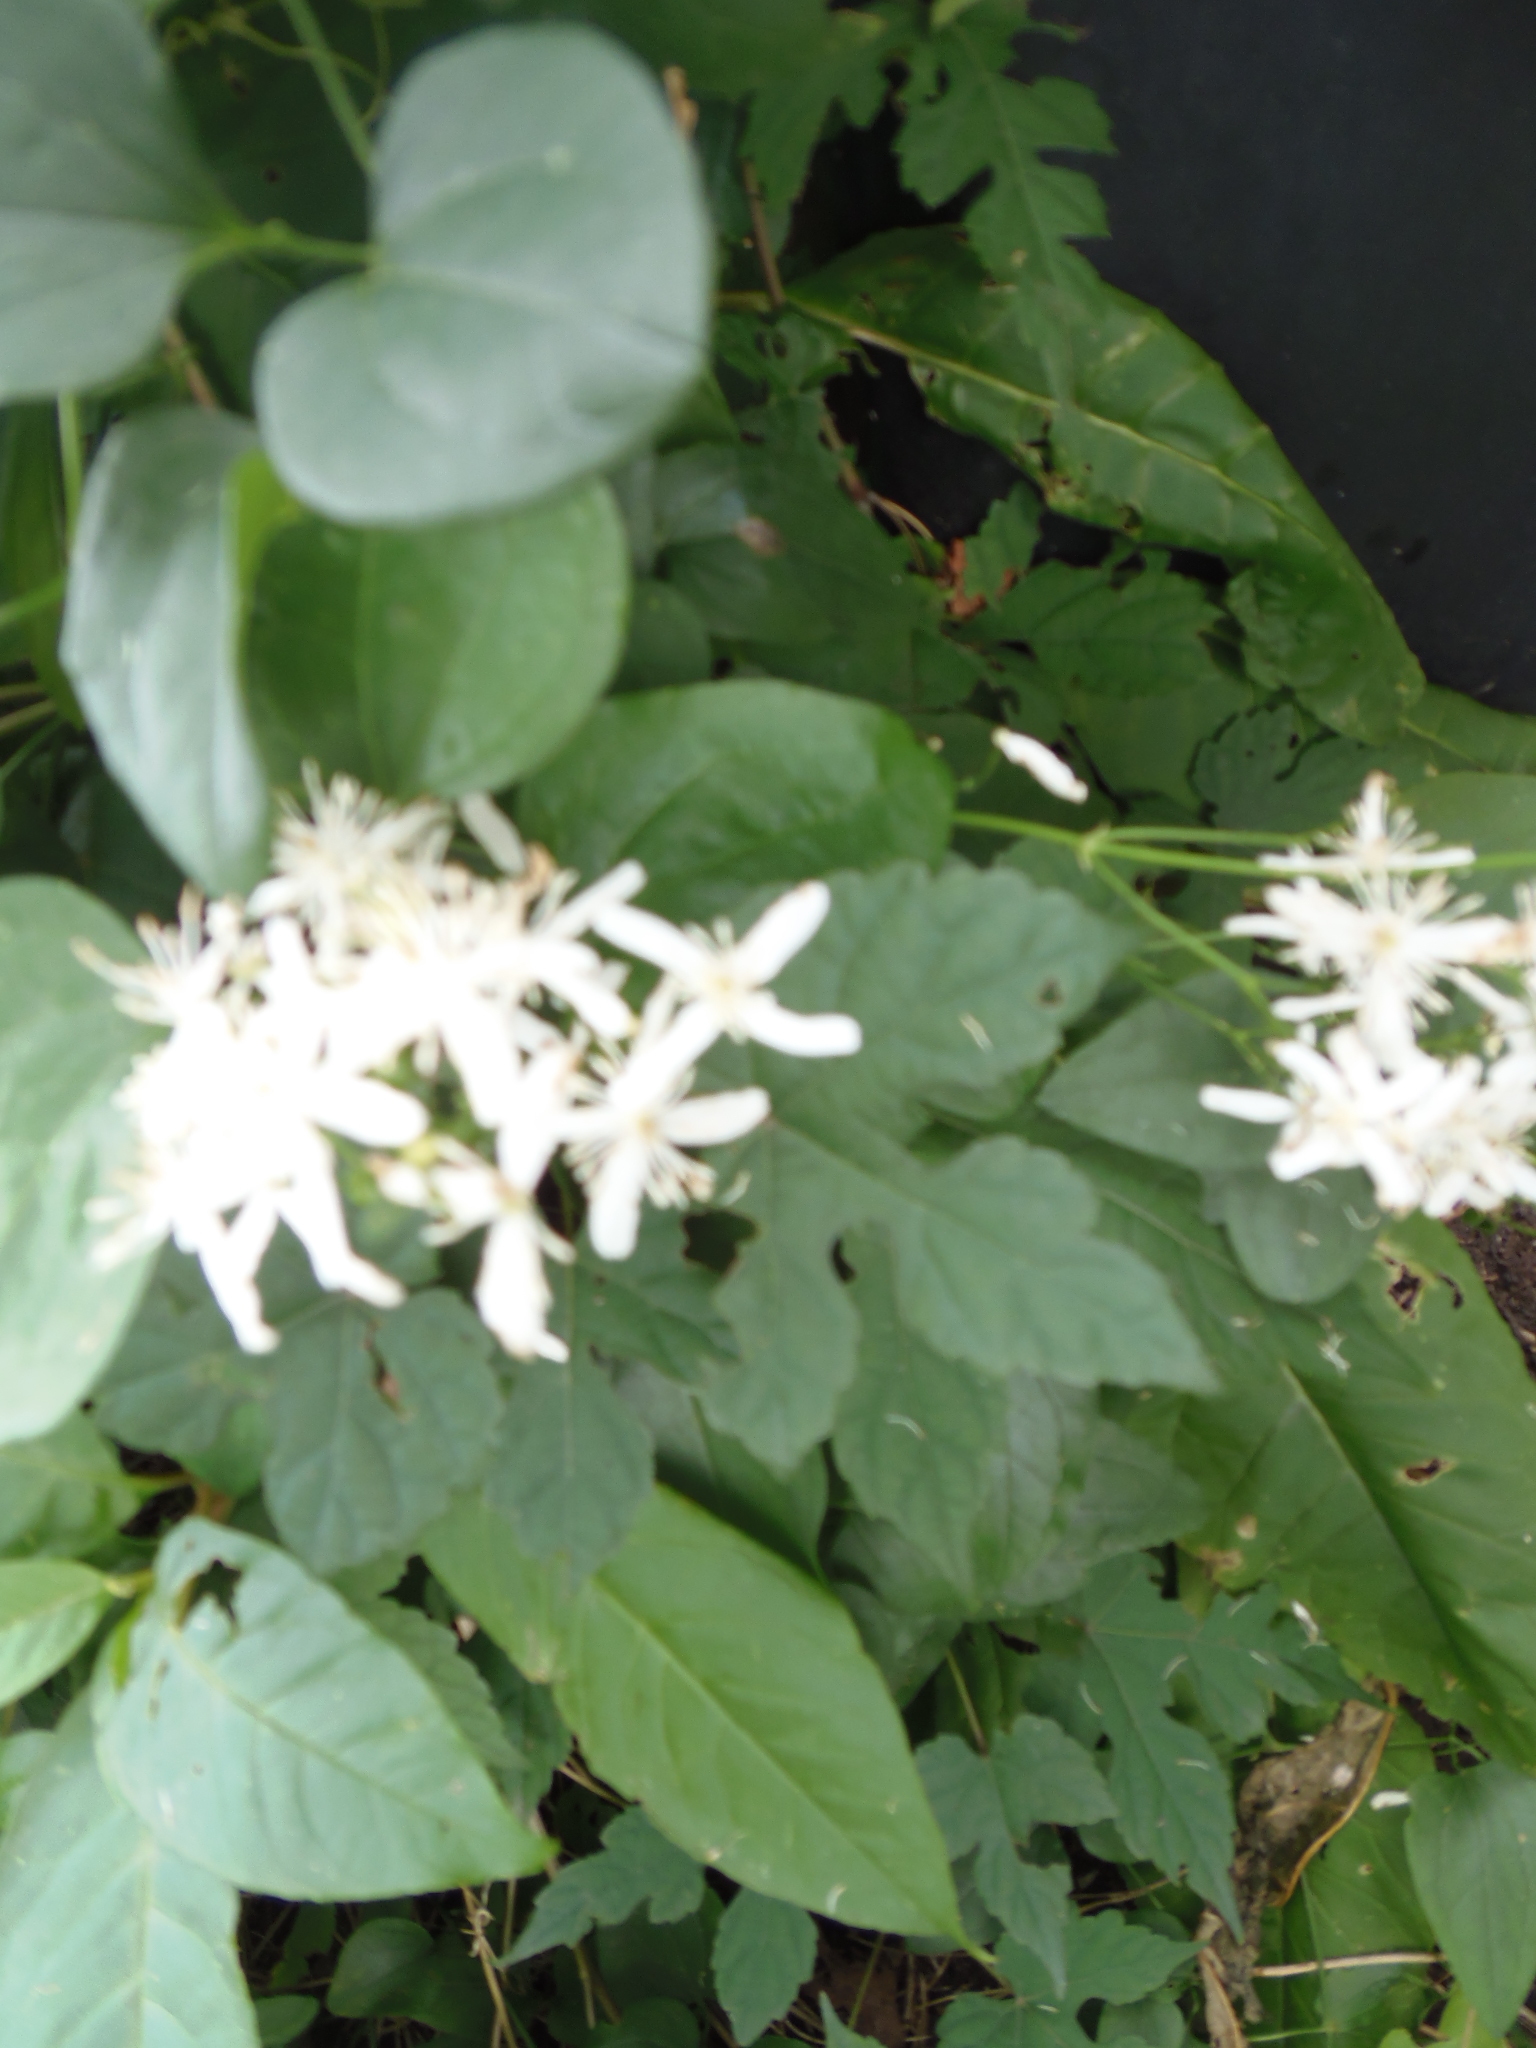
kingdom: Plantae
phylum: Tracheophyta
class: Magnoliopsida
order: Ranunculales
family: Ranunculaceae
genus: Clematis
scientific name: Clematis terniflora
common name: Sweet autumn clematis
